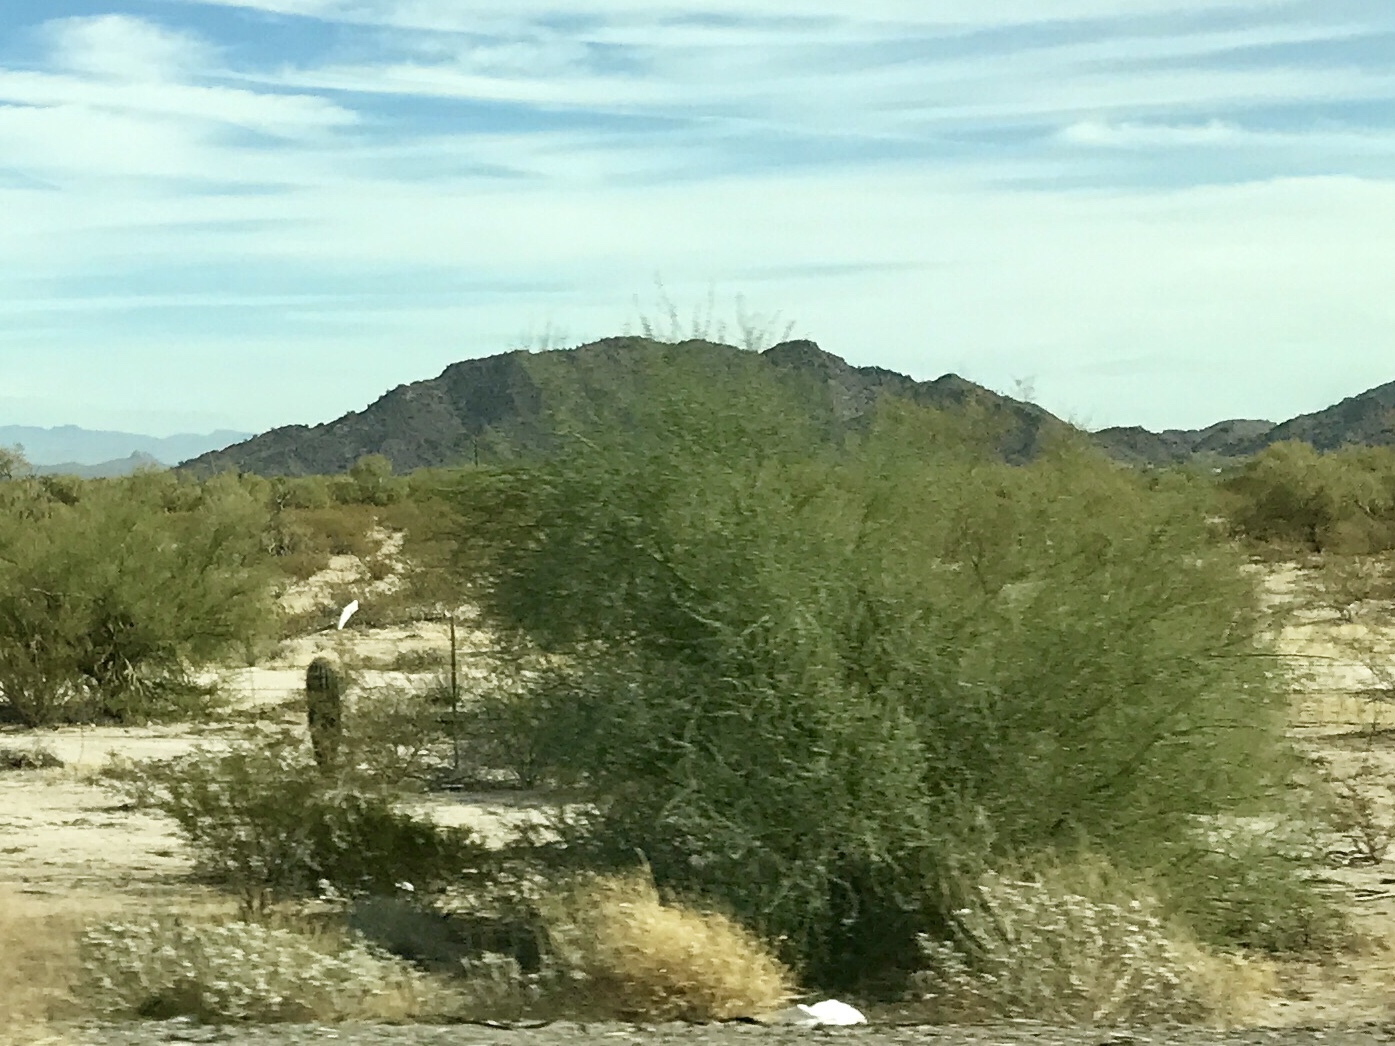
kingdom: Plantae
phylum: Tracheophyta
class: Magnoliopsida
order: Fabales
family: Fabaceae
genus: Parkinsonia
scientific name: Parkinsonia florida
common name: Blue paloverde
